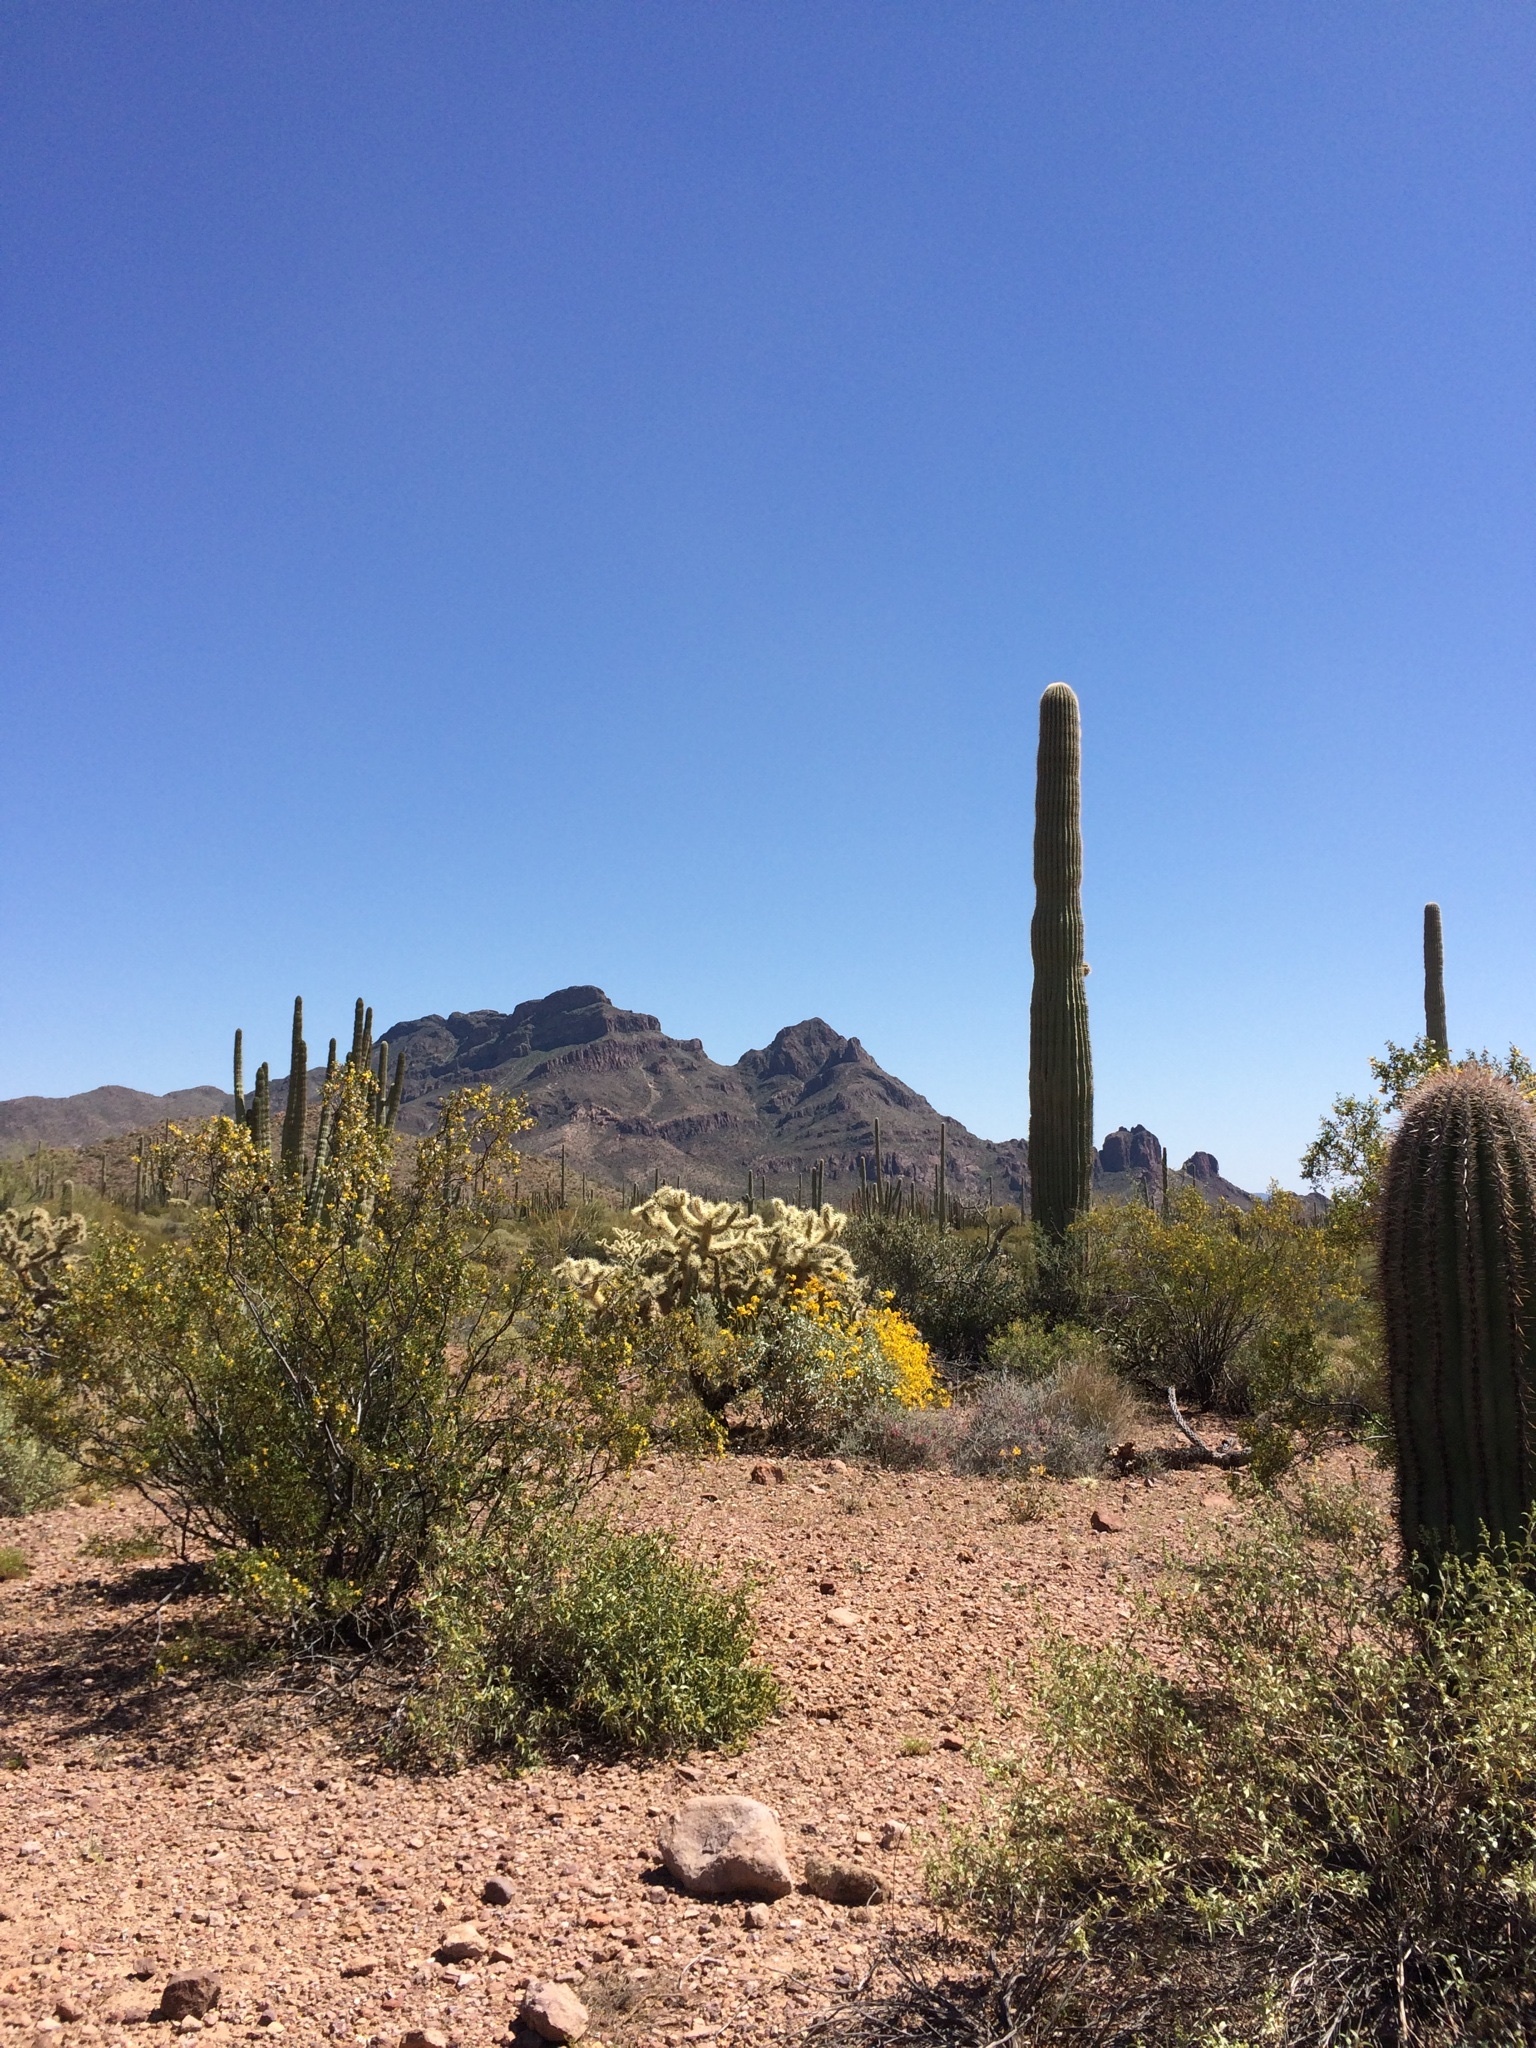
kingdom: Plantae
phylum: Tracheophyta
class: Magnoliopsida
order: Caryophyllales
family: Cactaceae
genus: Stenocereus
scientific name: Stenocereus thurberi
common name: Organ pipe cactus
